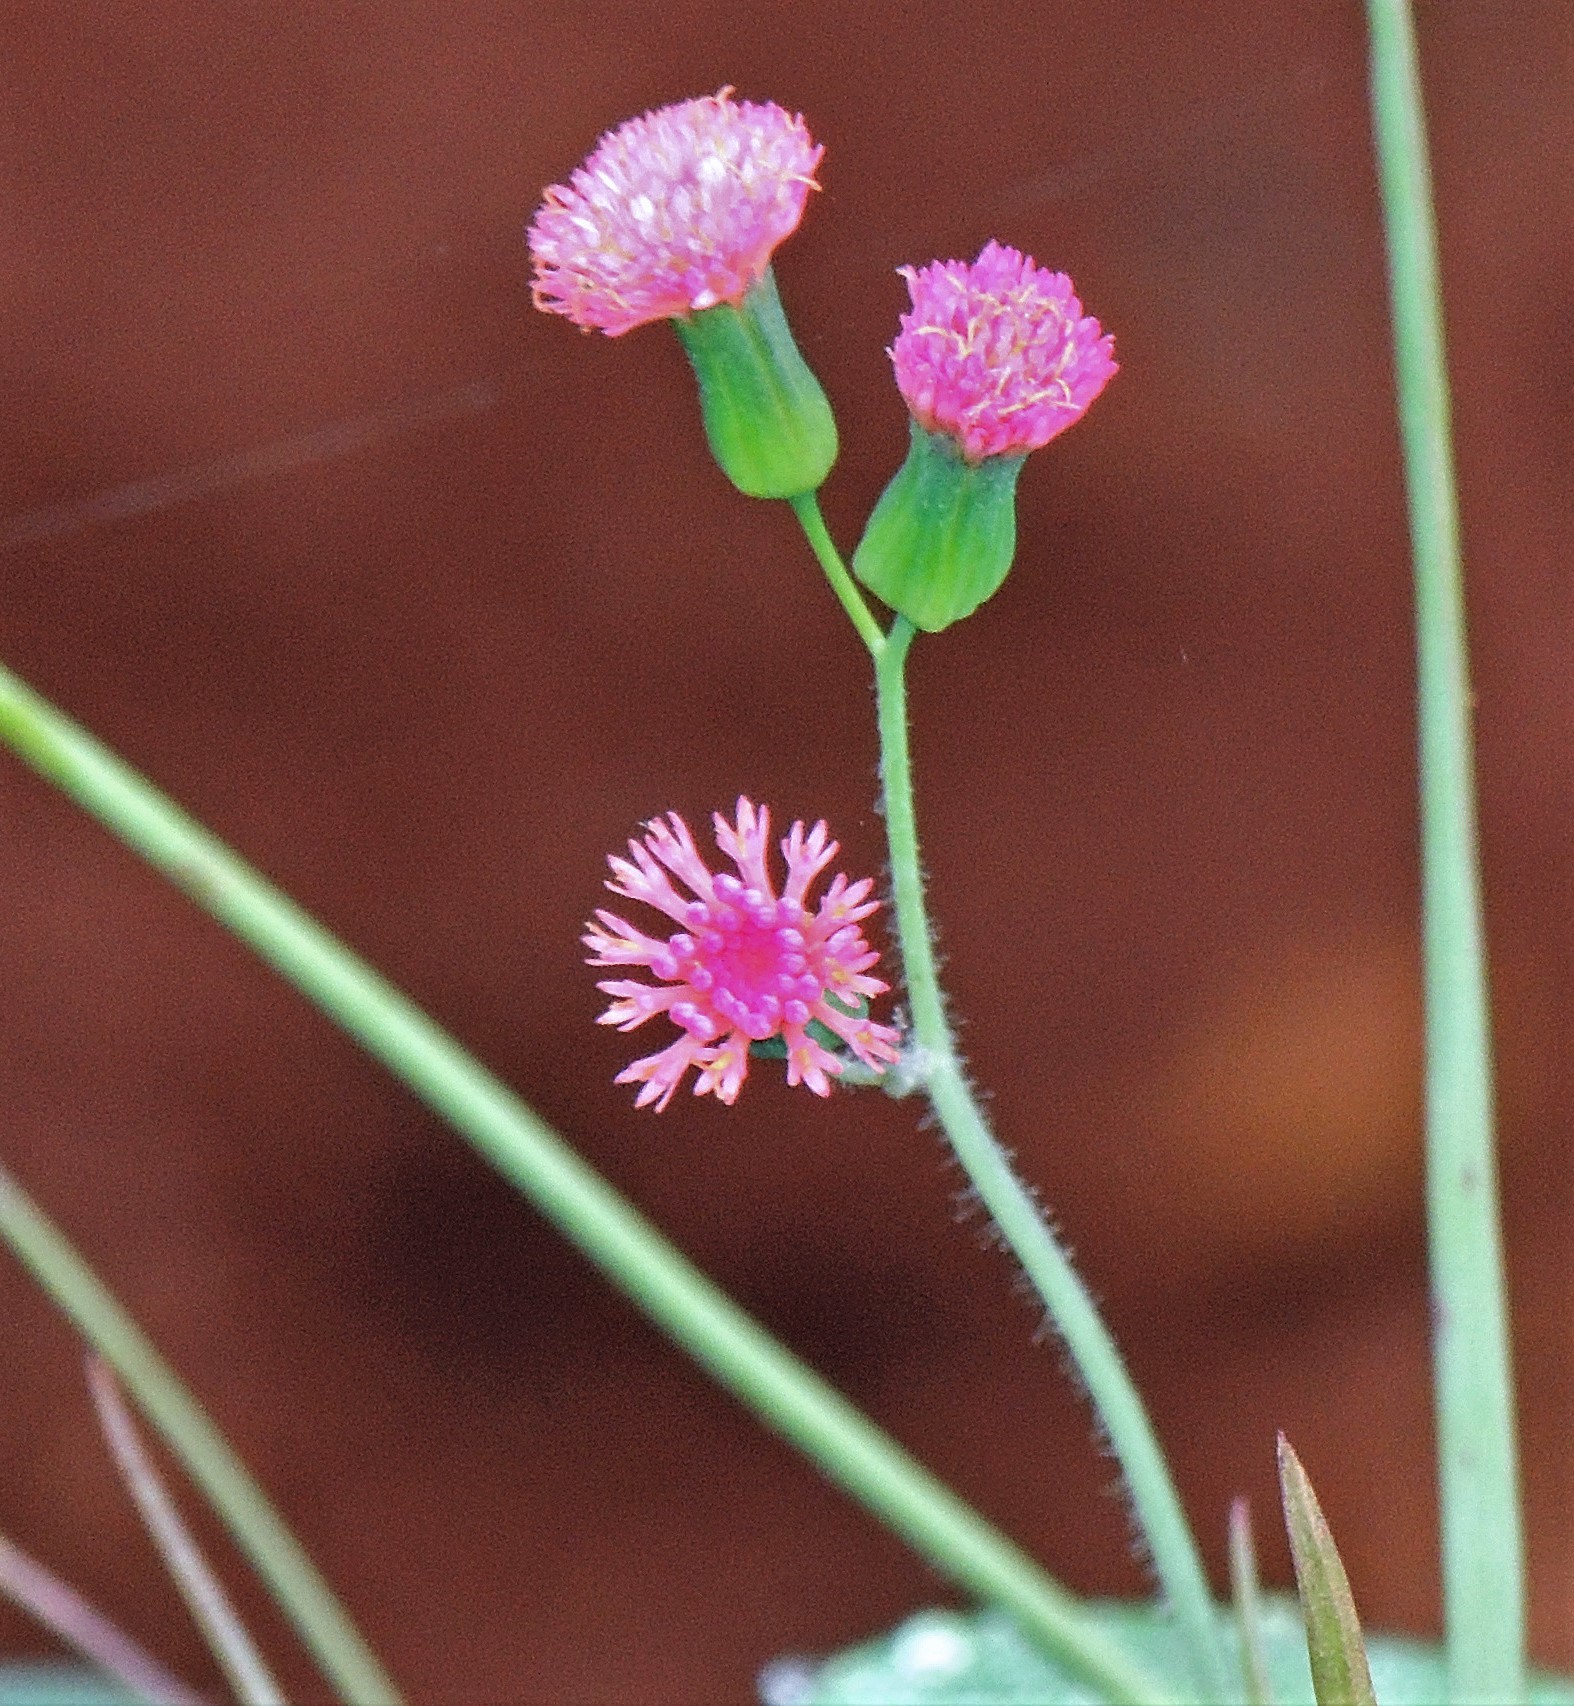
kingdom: Plantae
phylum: Tracheophyta
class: Magnoliopsida
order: Asterales
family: Asteraceae
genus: Emilia
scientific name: Emilia fosbergii
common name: Florida tasselflower
